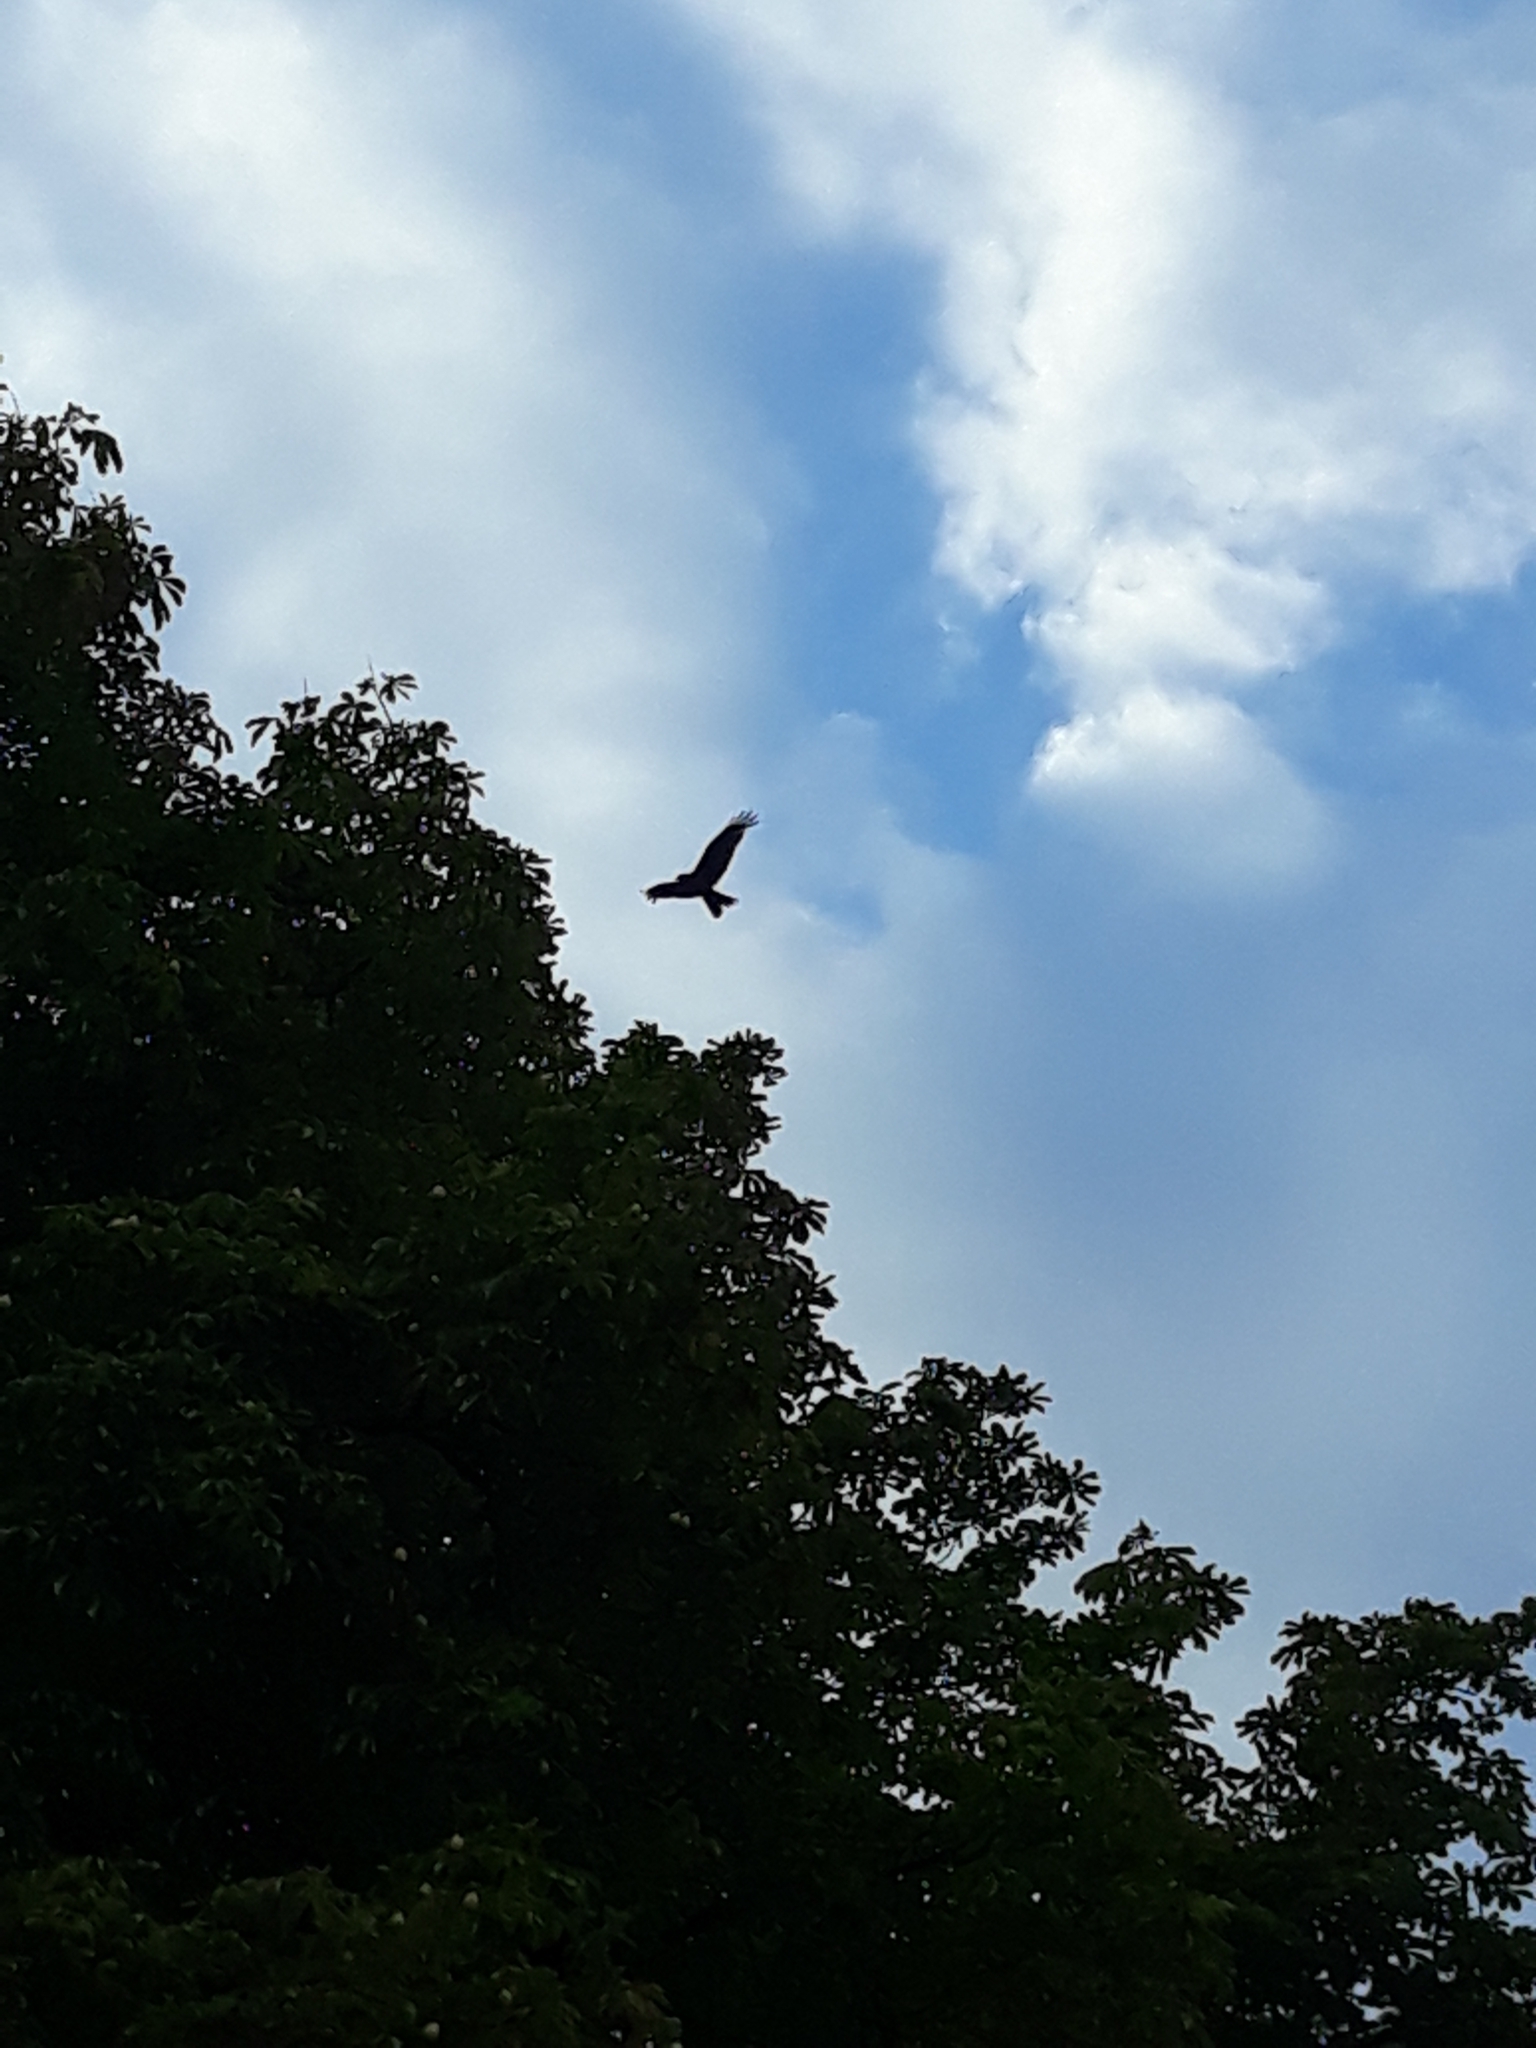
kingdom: Animalia
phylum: Chordata
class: Aves
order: Accipitriformes
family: Accipitridae
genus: Milvus
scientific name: Milvus migrans
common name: Black kite
